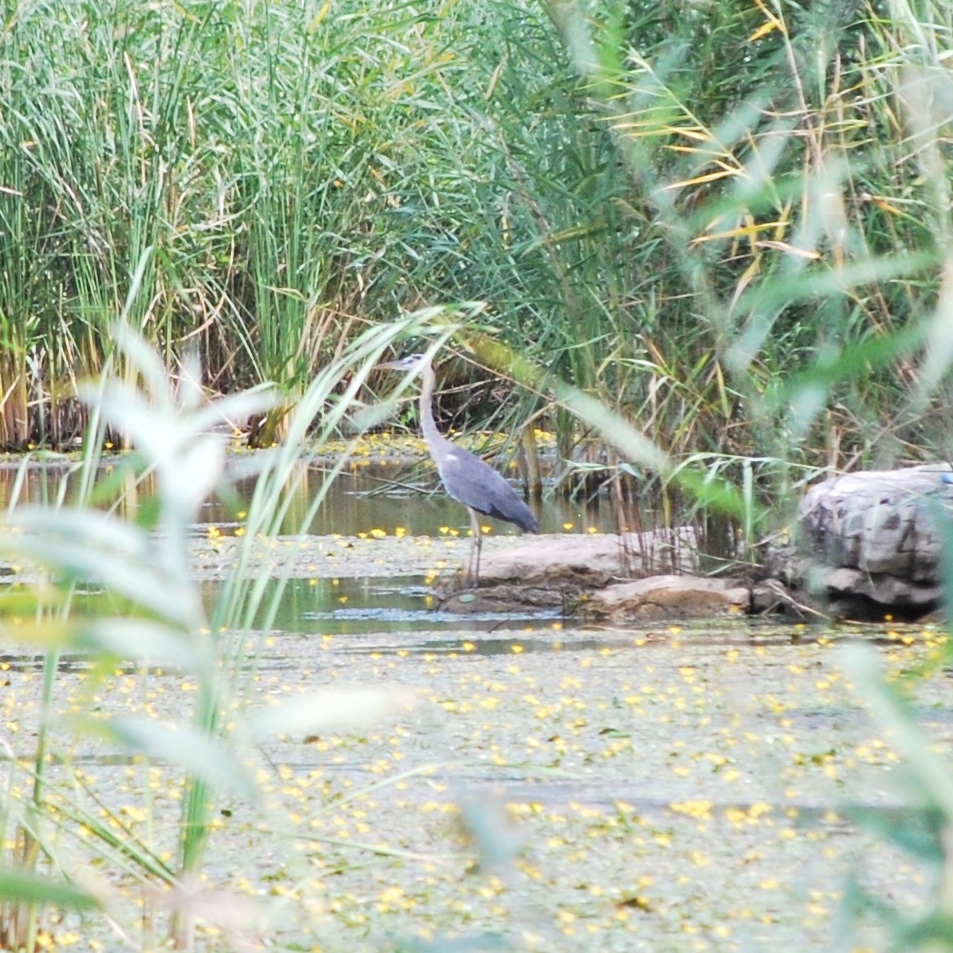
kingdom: Animalia
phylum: Chordata
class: Aves
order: Pelecaniformes
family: Ardeidae
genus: Ardea
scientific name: Ardea cinerea
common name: Grey heron
